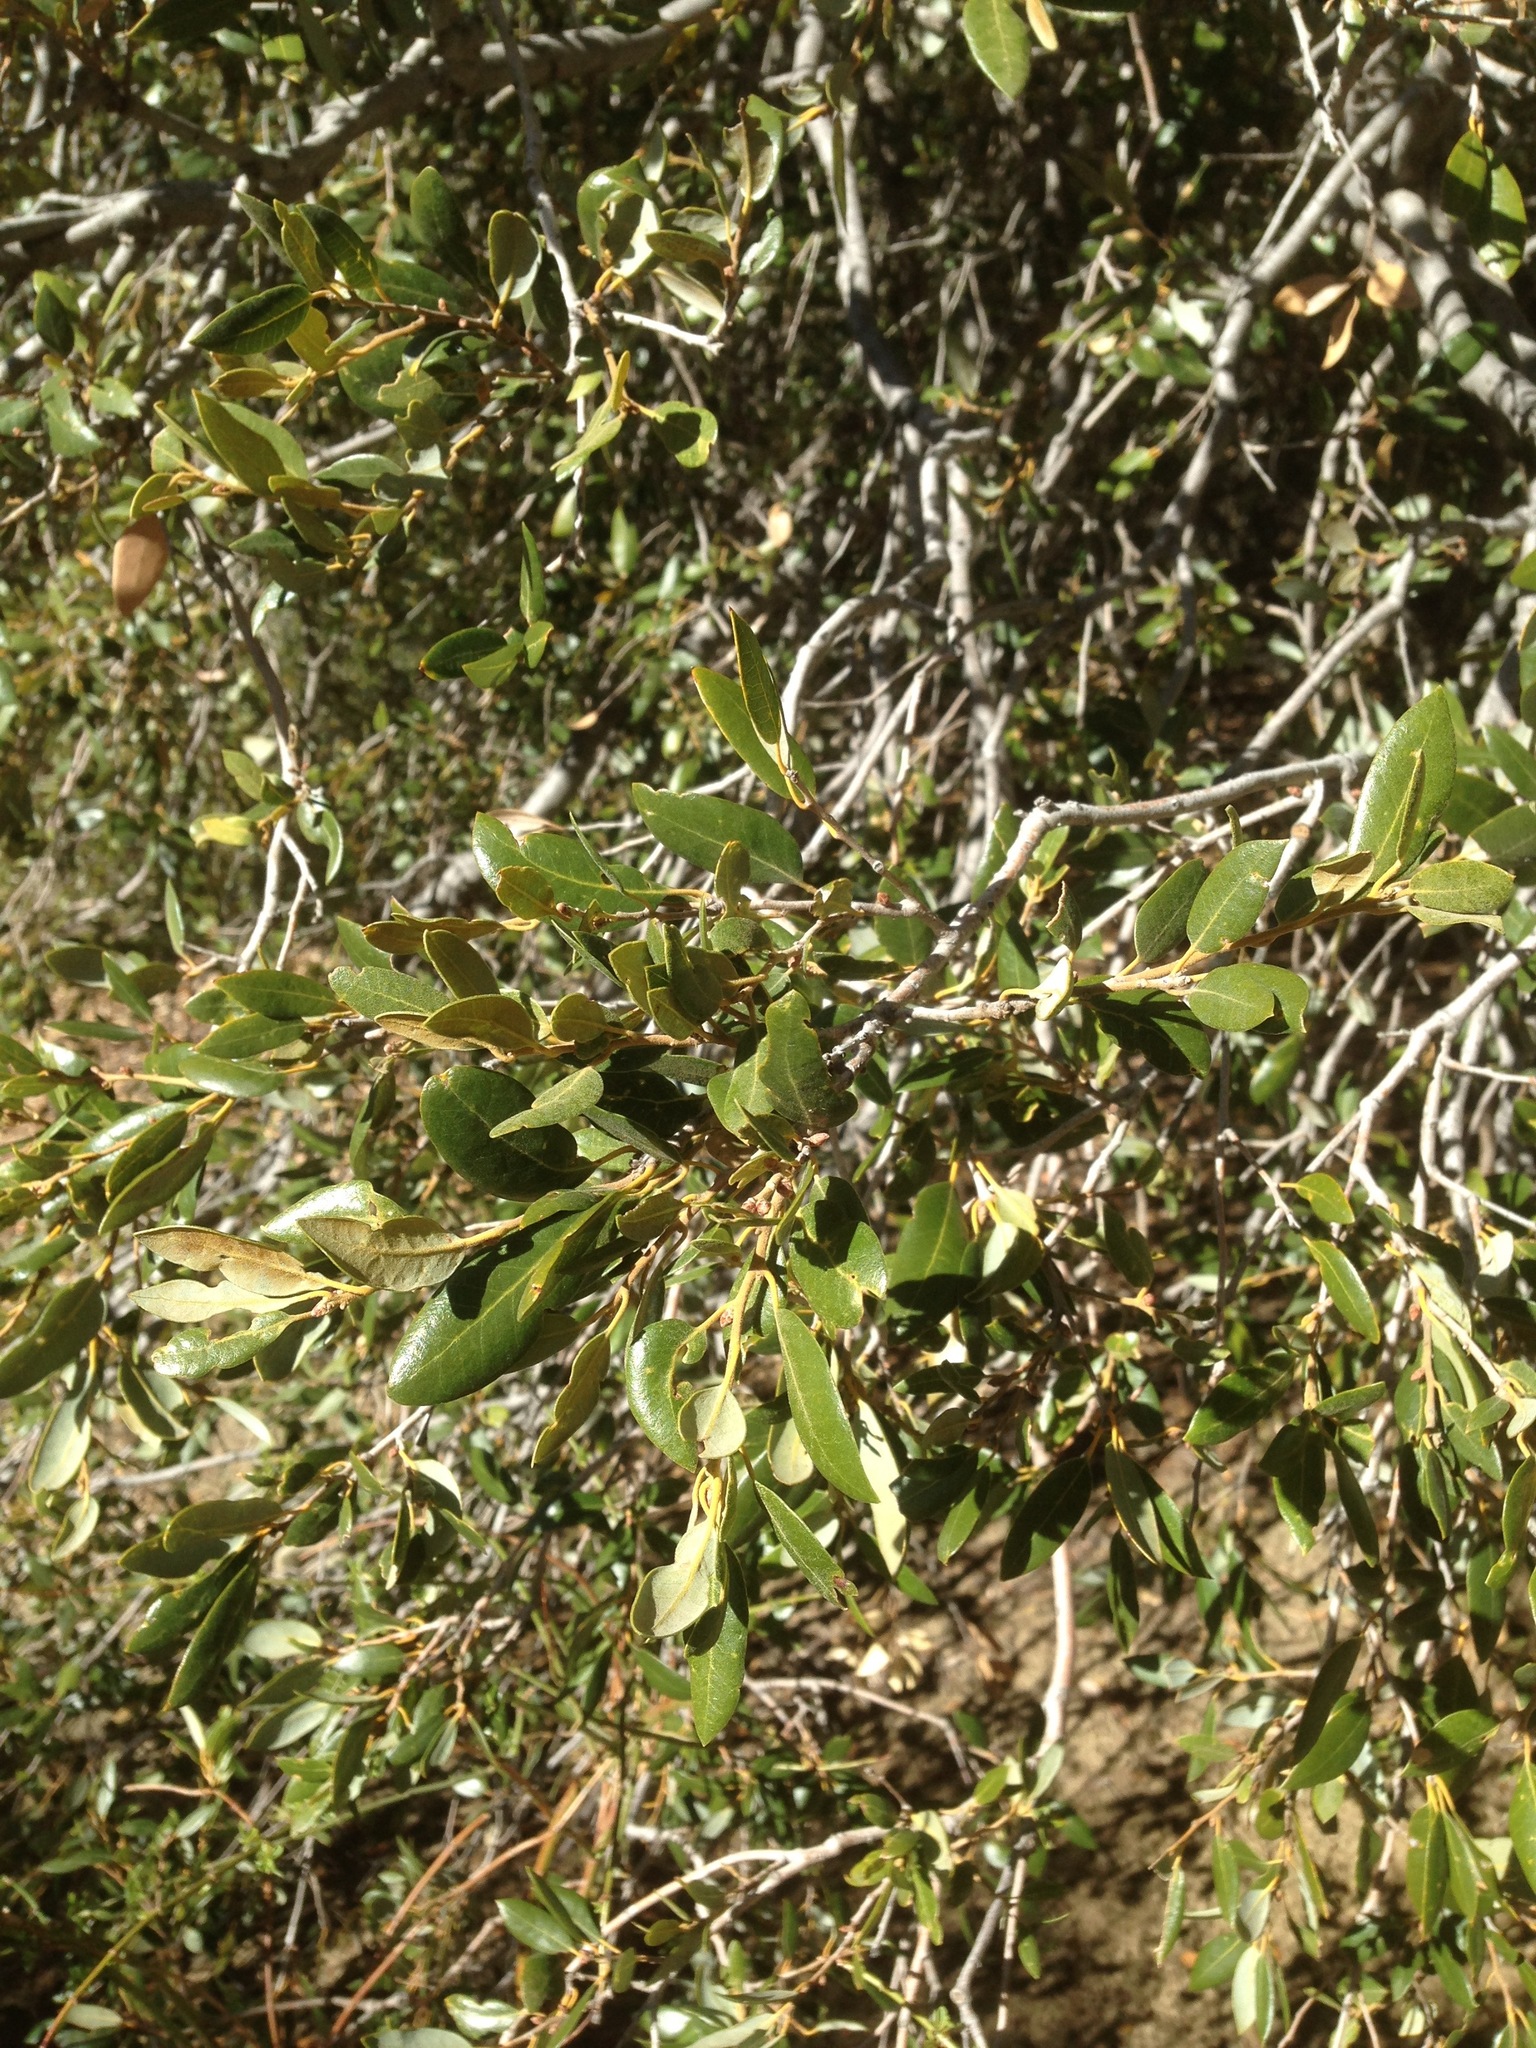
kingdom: Plantae
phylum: Tracheophyta
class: Magnoliopsida
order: Fagales
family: Fagaceae
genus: Quercus
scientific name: Quercus chrysolepis
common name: Canyon live oak
